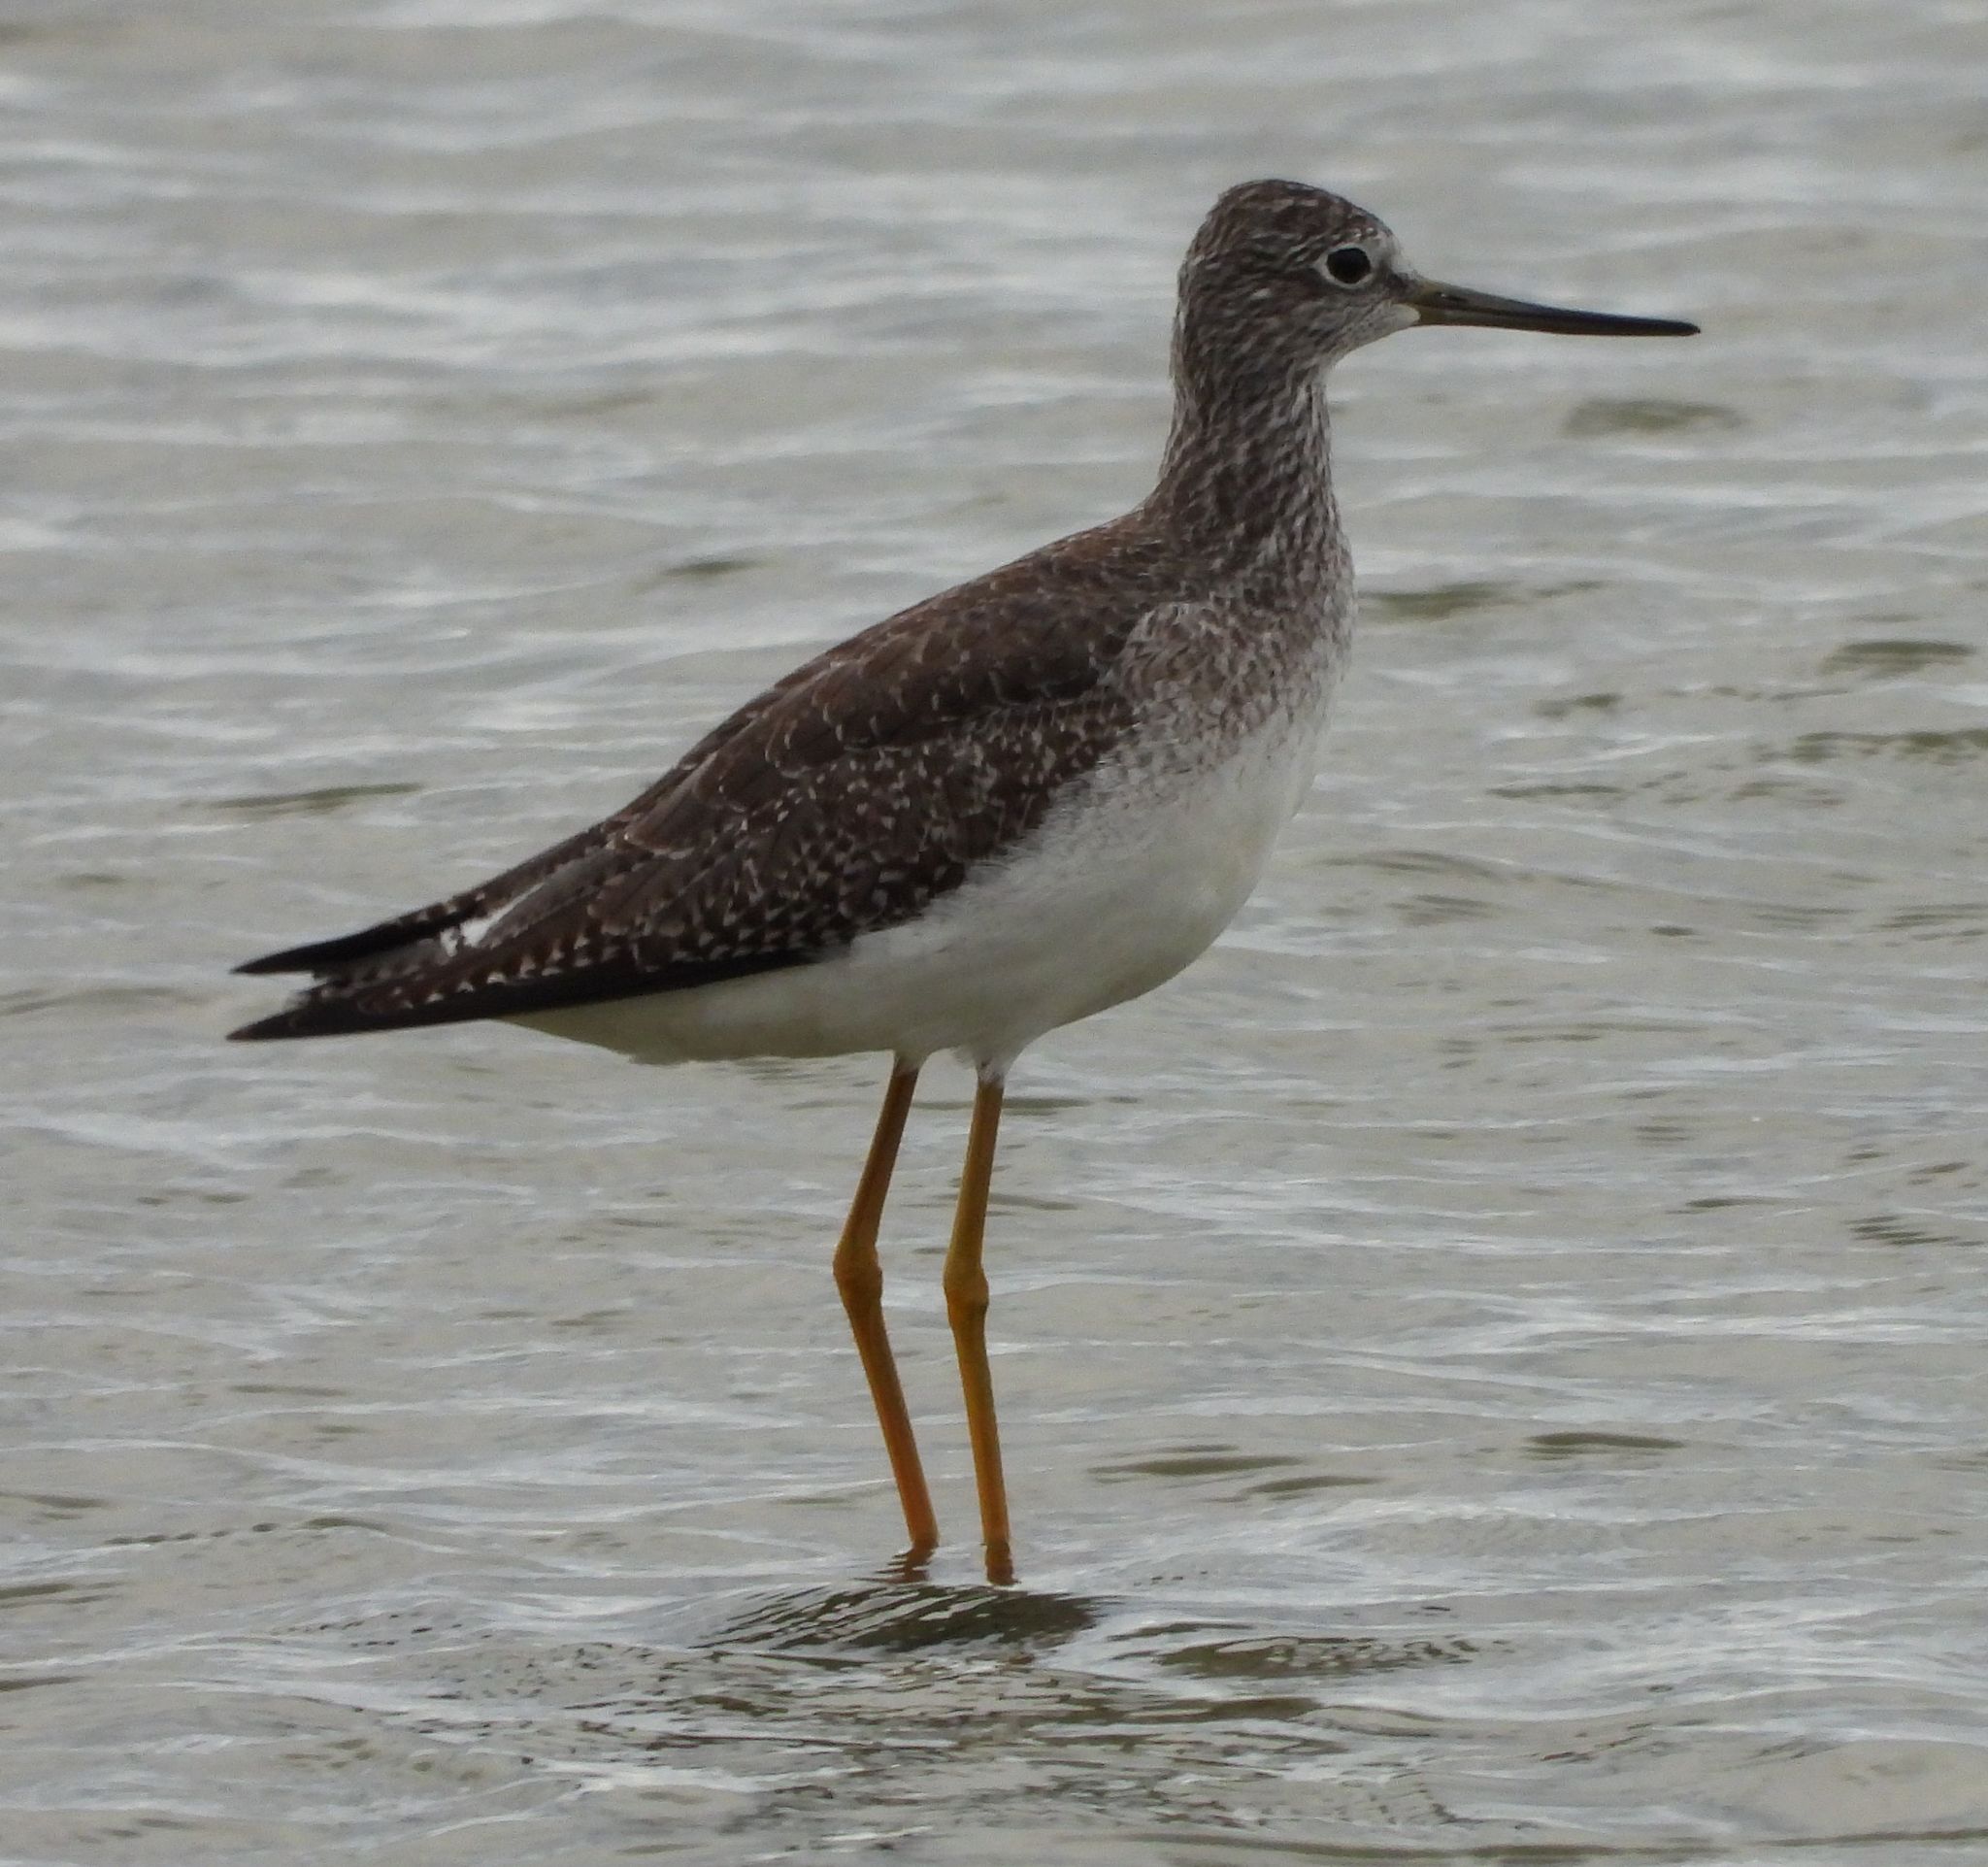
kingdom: Animalia
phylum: Chordata
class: Aves
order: Charadriiformes
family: Scolopacidae
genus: Tringa
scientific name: Tringa melanoleuca
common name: Greater yellowlegs
